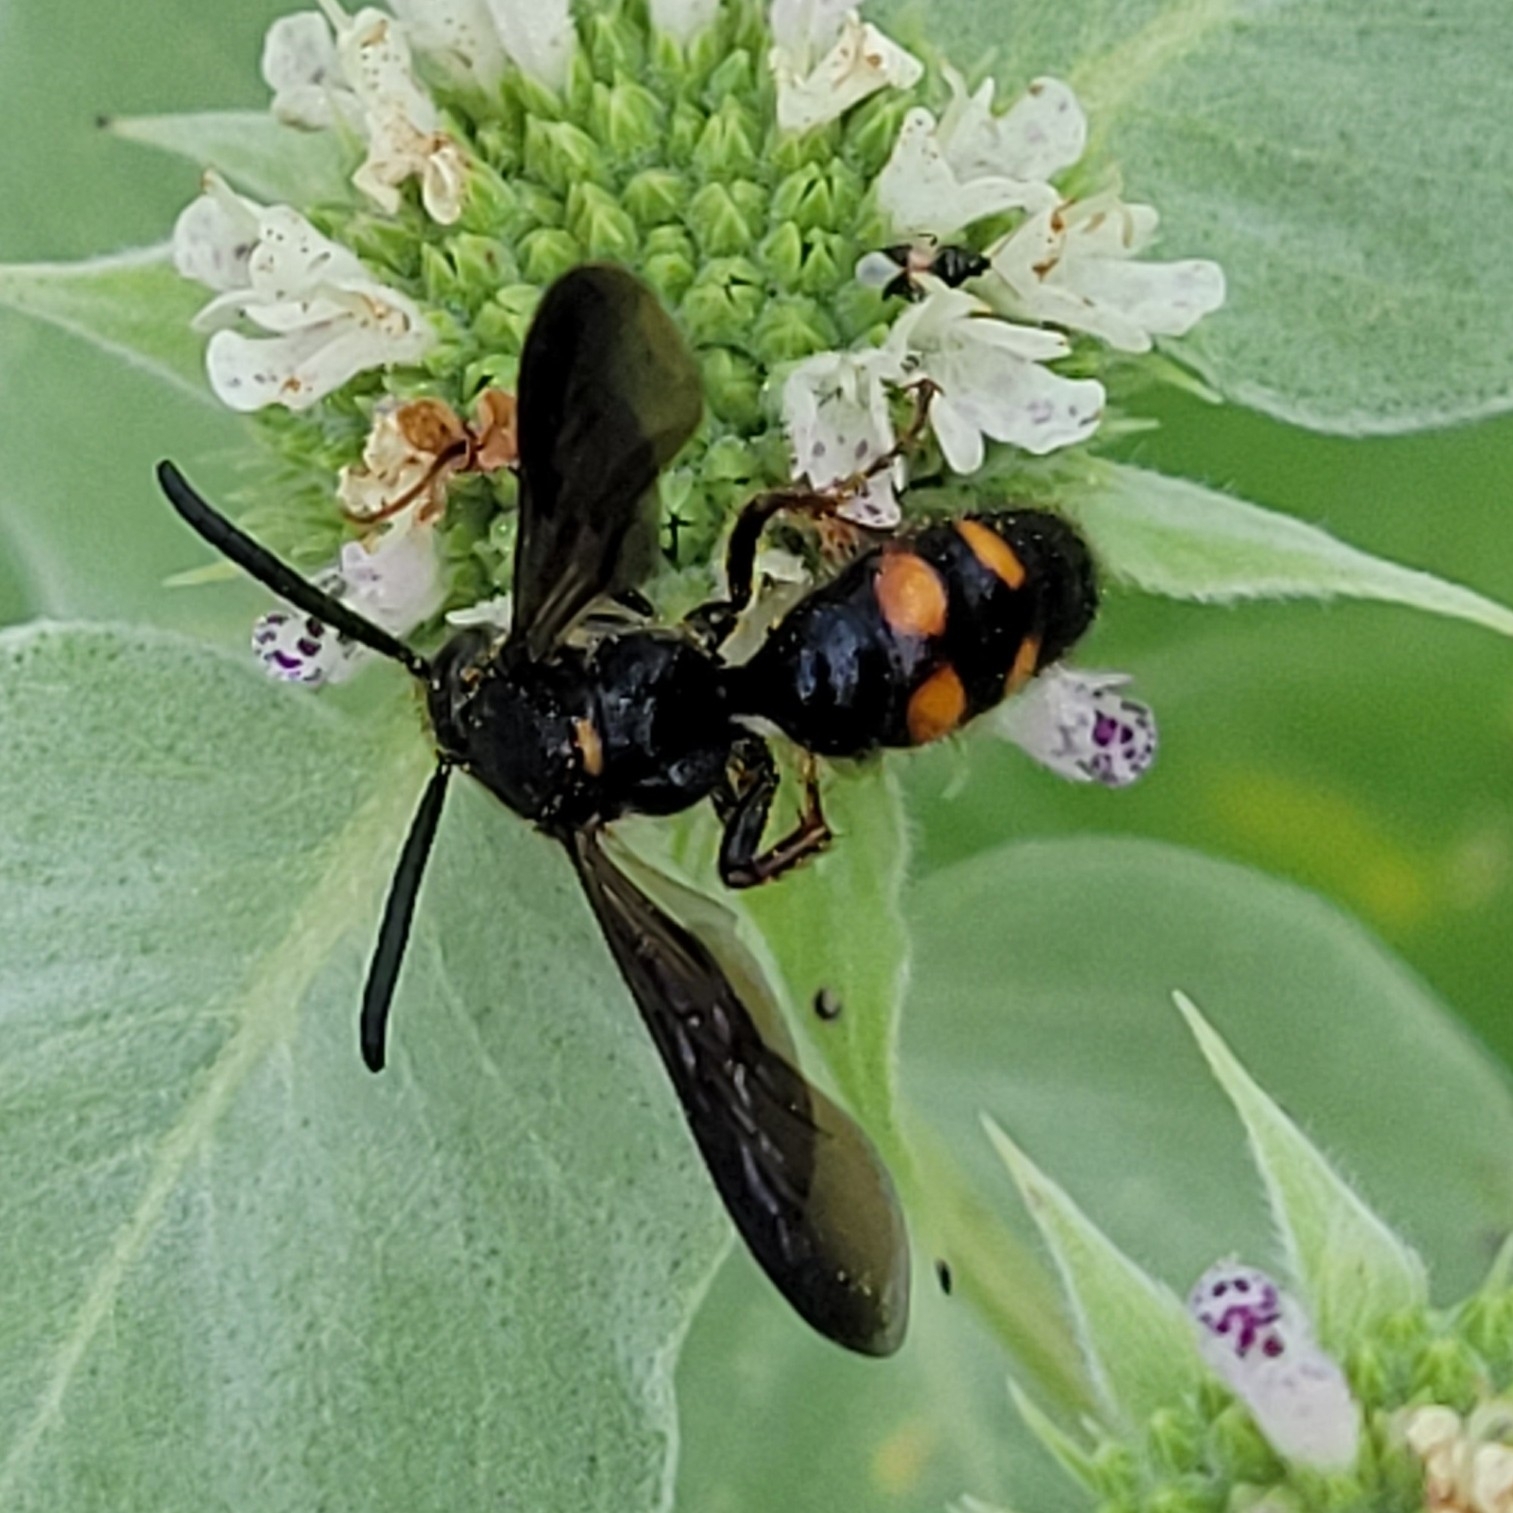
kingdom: Animalia
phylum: Arthropoda
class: Insecta
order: Hymenoptera
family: Scoliidae
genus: Scolia
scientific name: Scolia nobilitata
